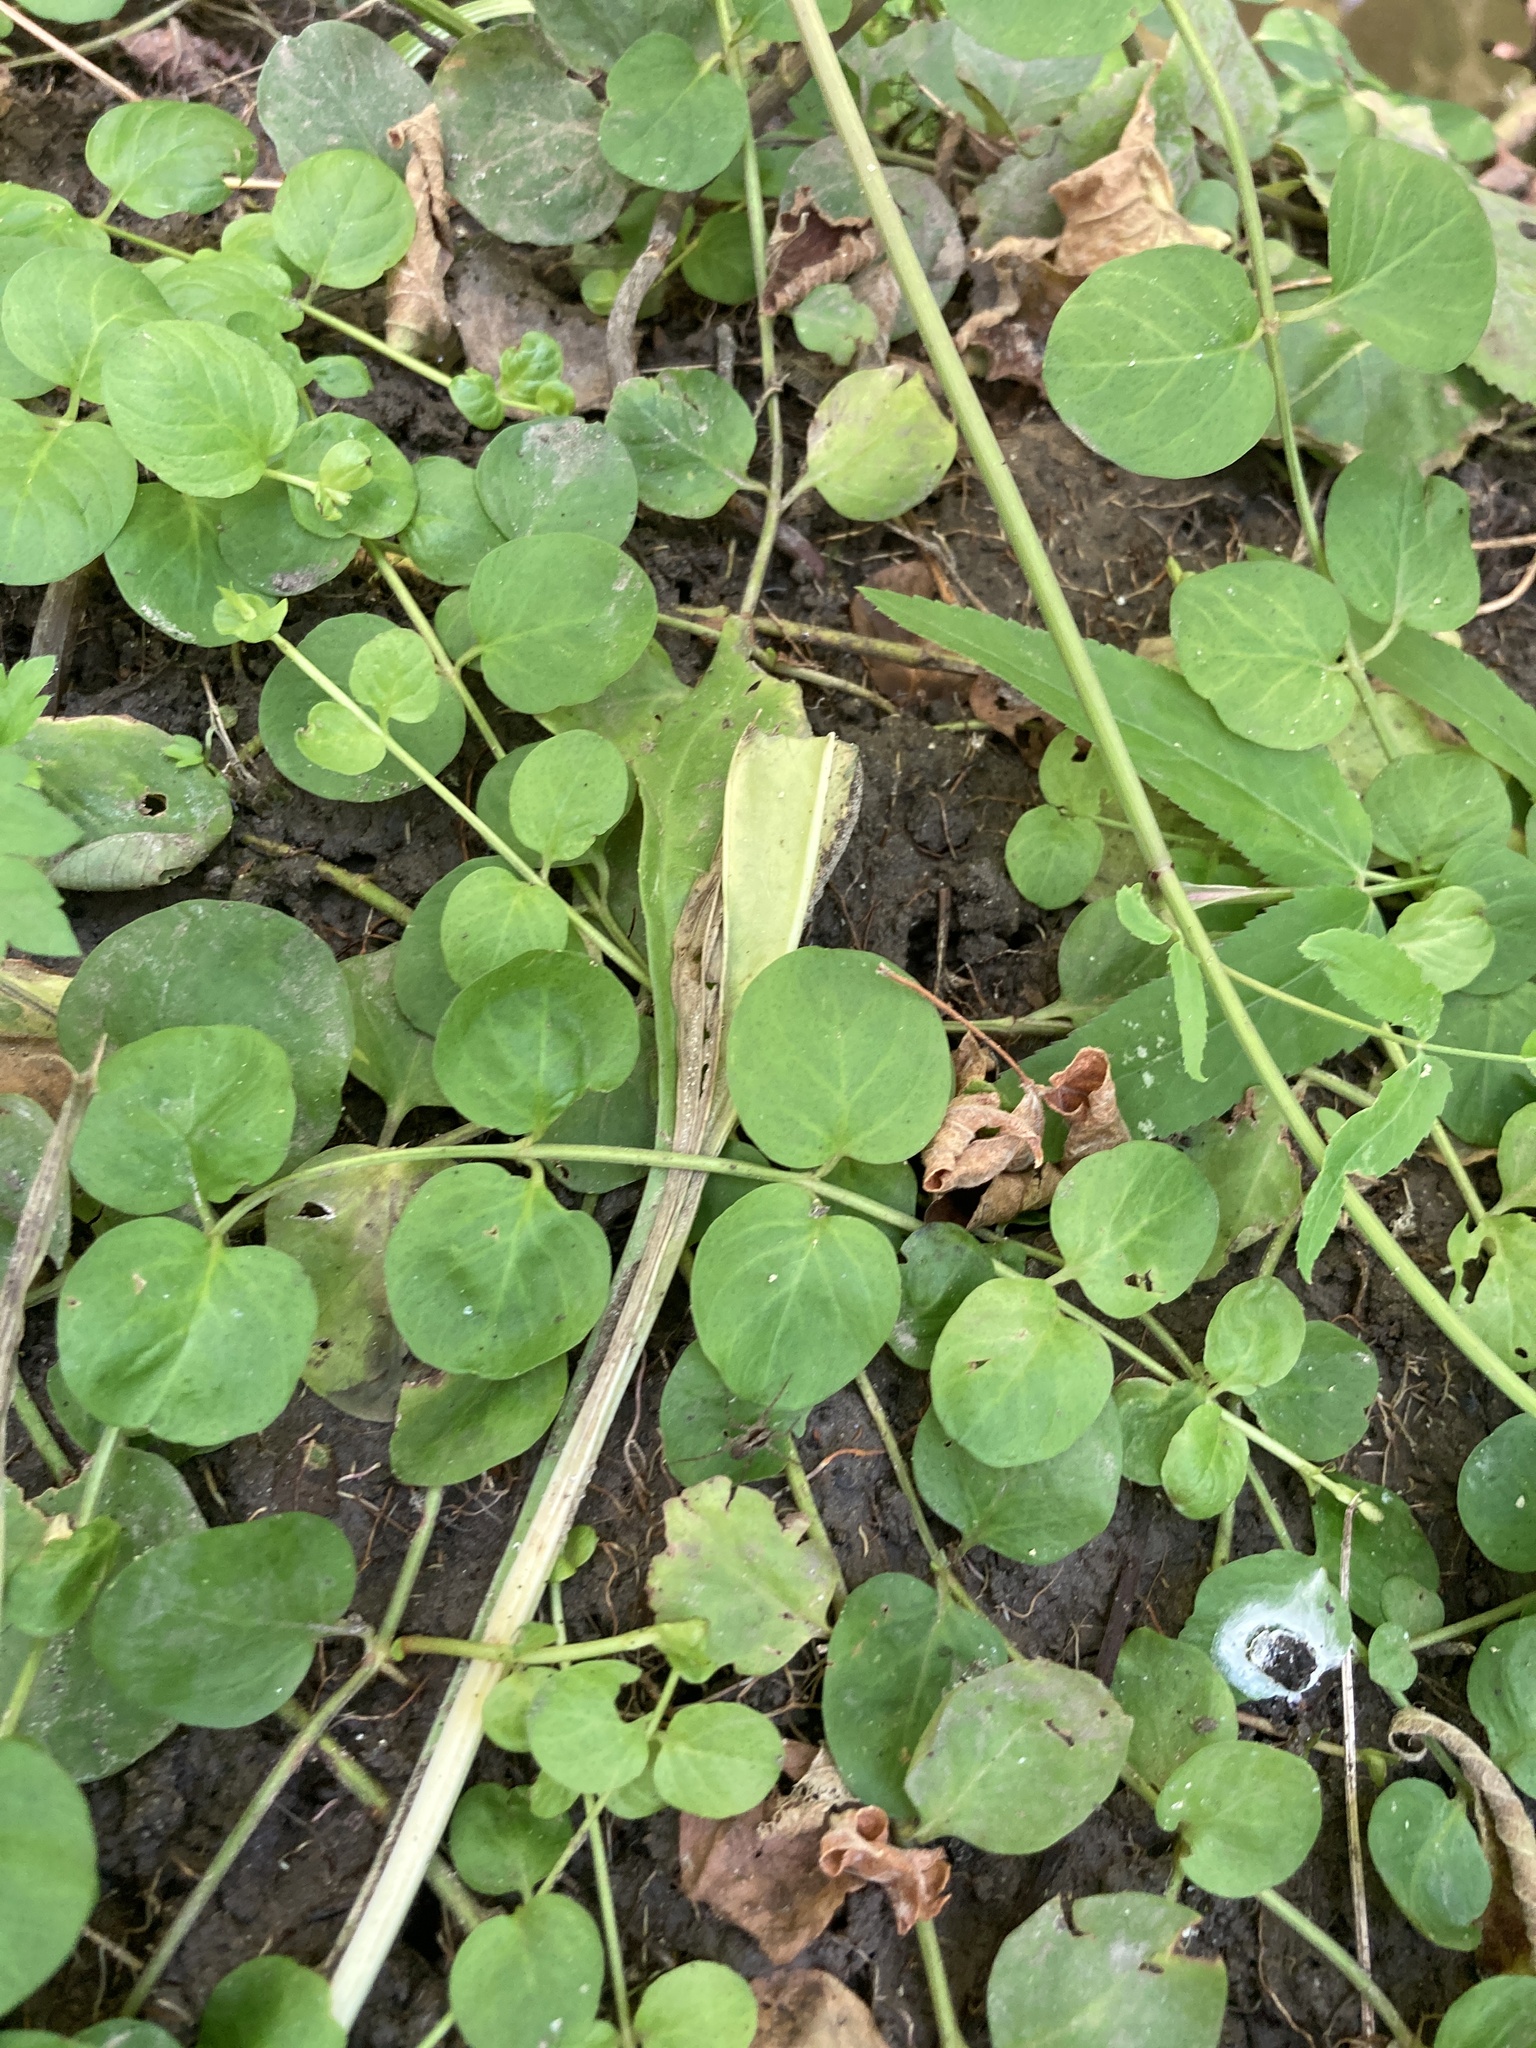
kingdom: Plantae
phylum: Tracheophyta
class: Magnoliopsida
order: Ericales
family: Primulaceae
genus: Lysimachia
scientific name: Lysimachia nummularia
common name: Moneywort
